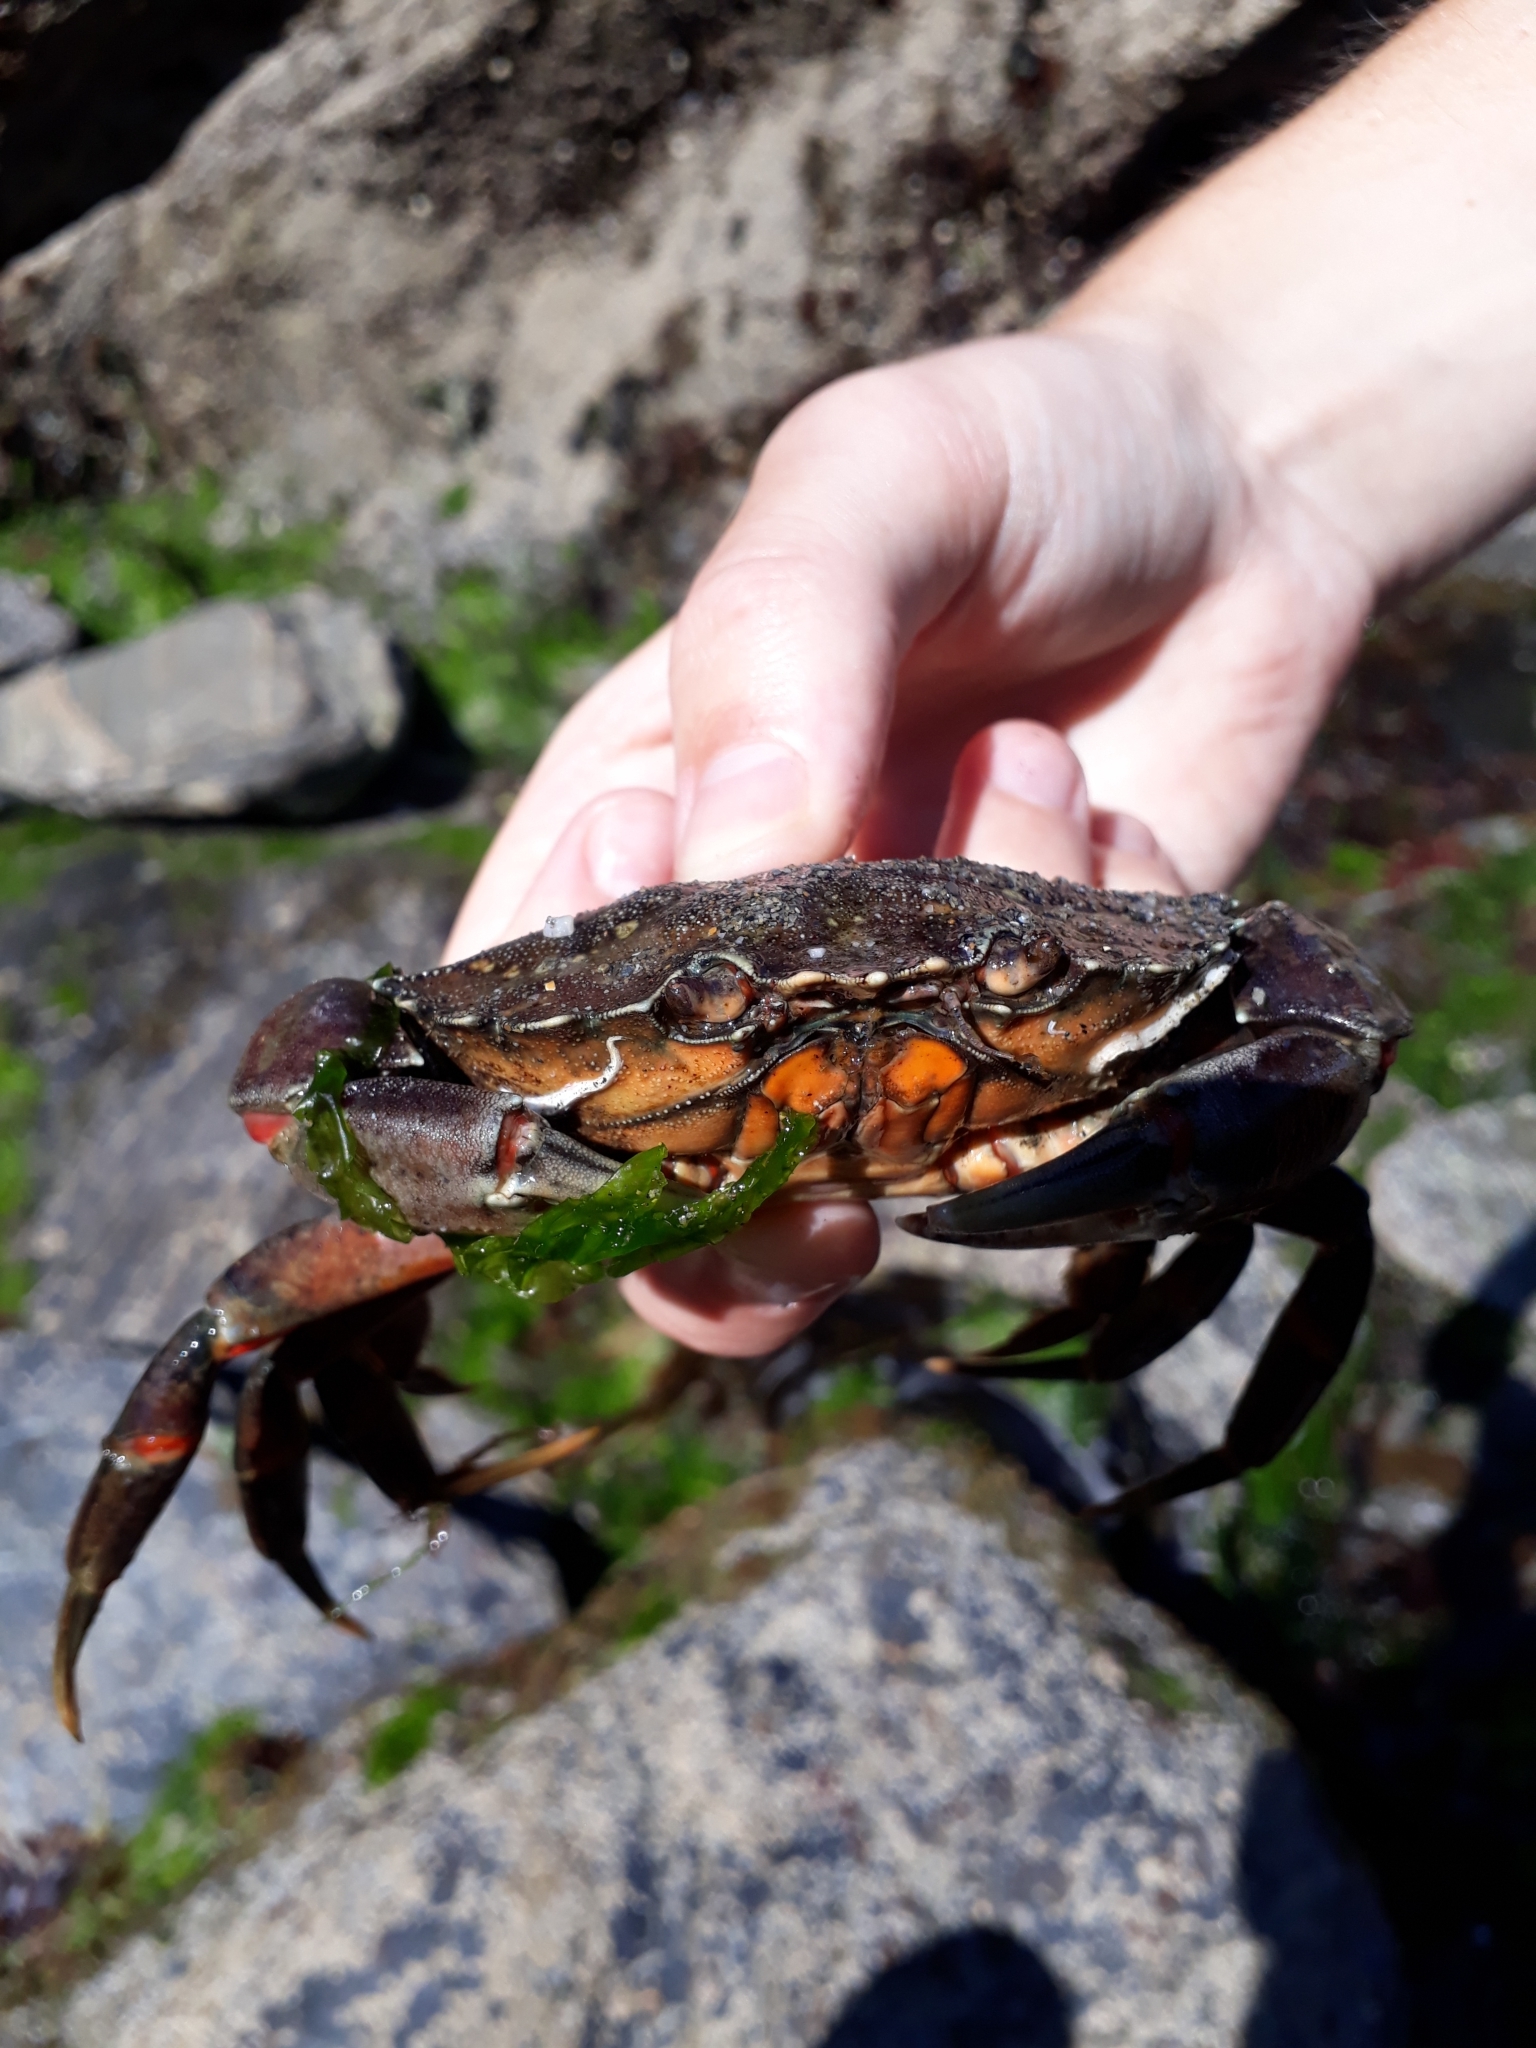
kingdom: Animalia
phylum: Arthropoda
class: Malacostraca
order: Decapoda
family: Carcinidae
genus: Carcinus
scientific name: Carcinus maenas
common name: European green crab
